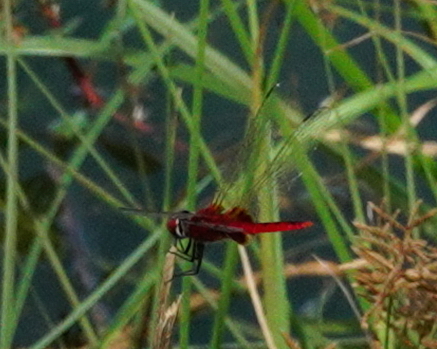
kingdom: Animalia
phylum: Arthropoda
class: Insecta
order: Odonata
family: Libellulidae
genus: Urothemis
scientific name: Urothemis signata
